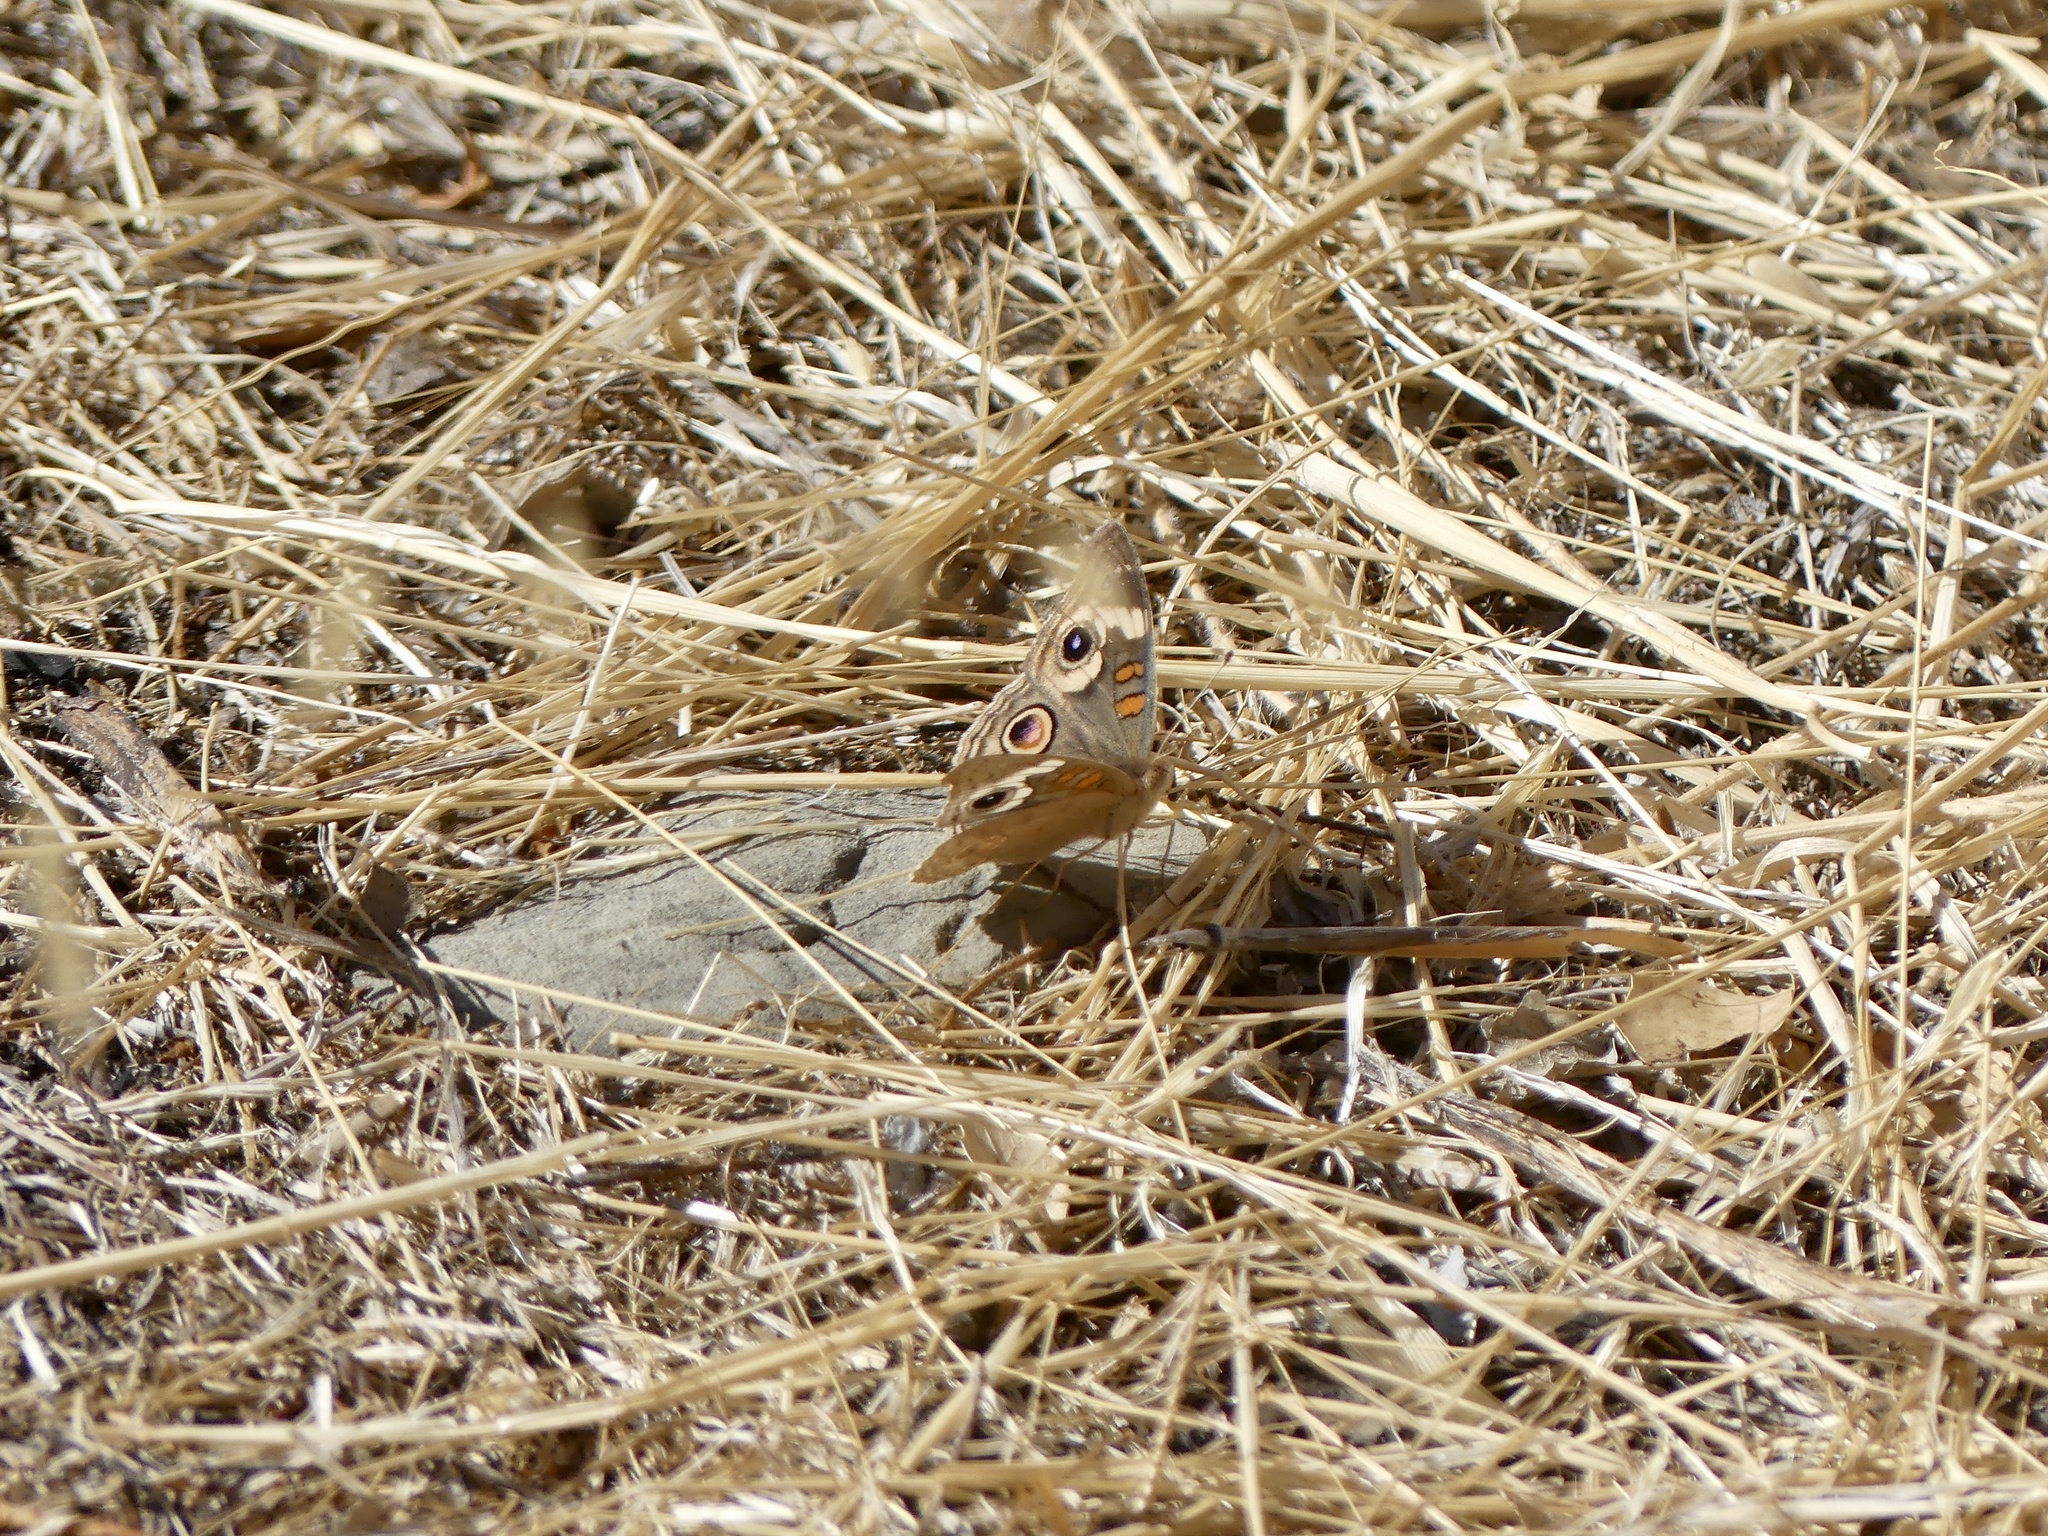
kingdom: Animalia
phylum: Arthropoda
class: Insecta
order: Lepidoptera
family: Nymphalidae
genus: Junonia
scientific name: Junonia grisea
